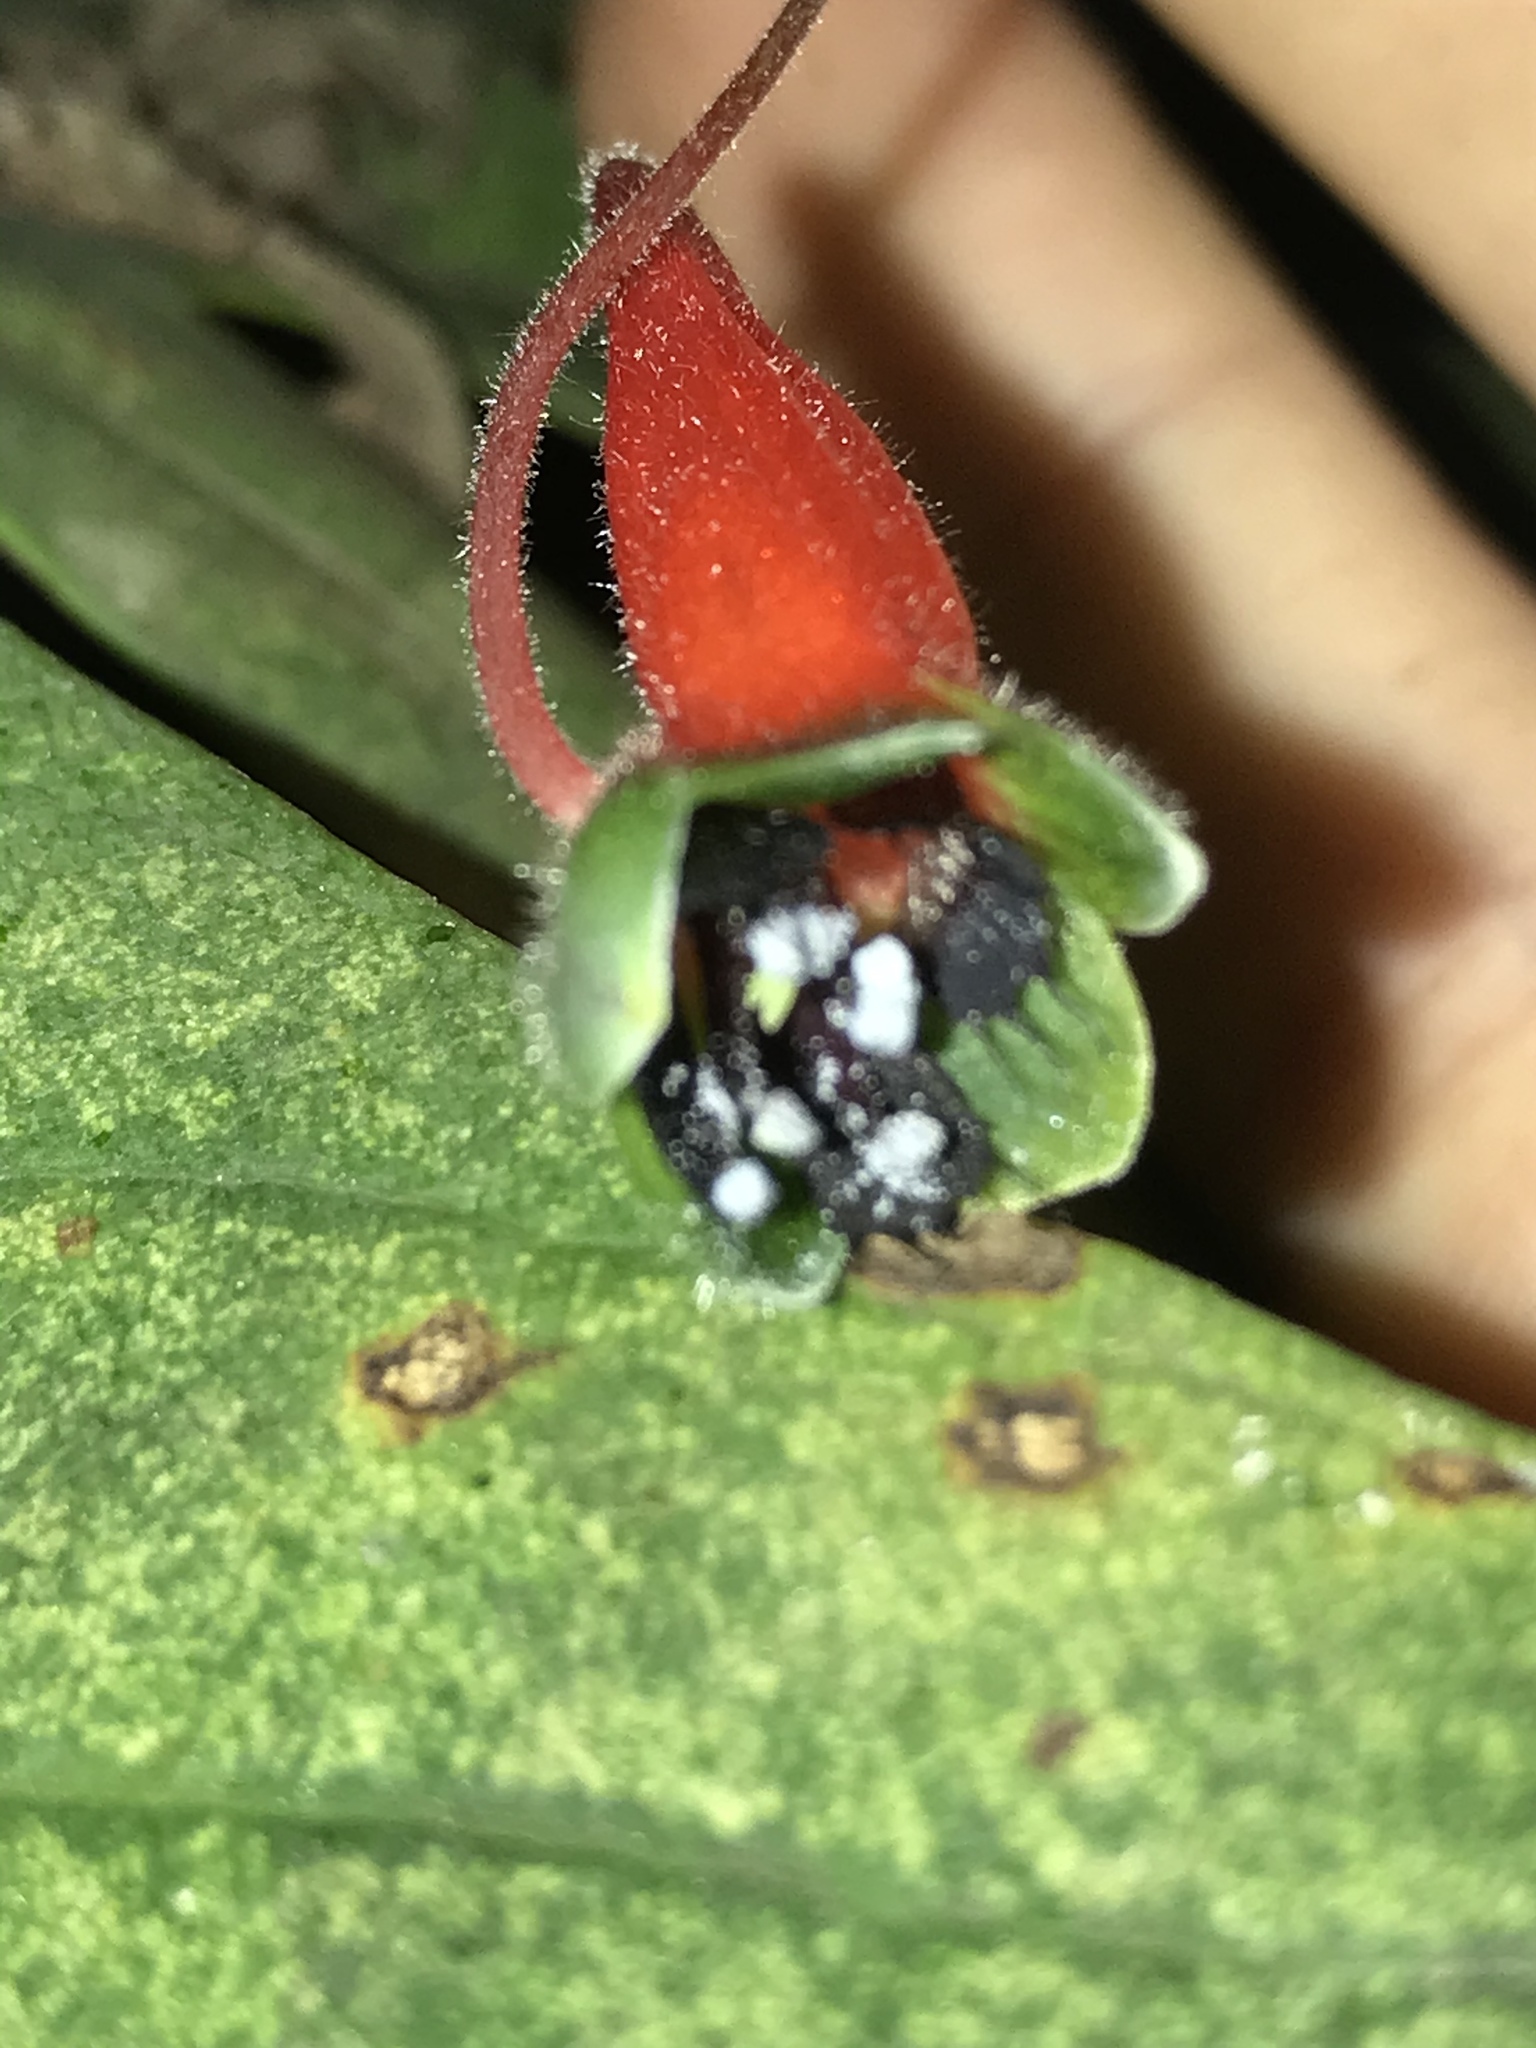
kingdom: Plantae
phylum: Tracheophyta
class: Magnoliopsida
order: Brassicales
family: Tropaeolaceae
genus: Tropaeolum
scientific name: Tropaeolum pubescens
